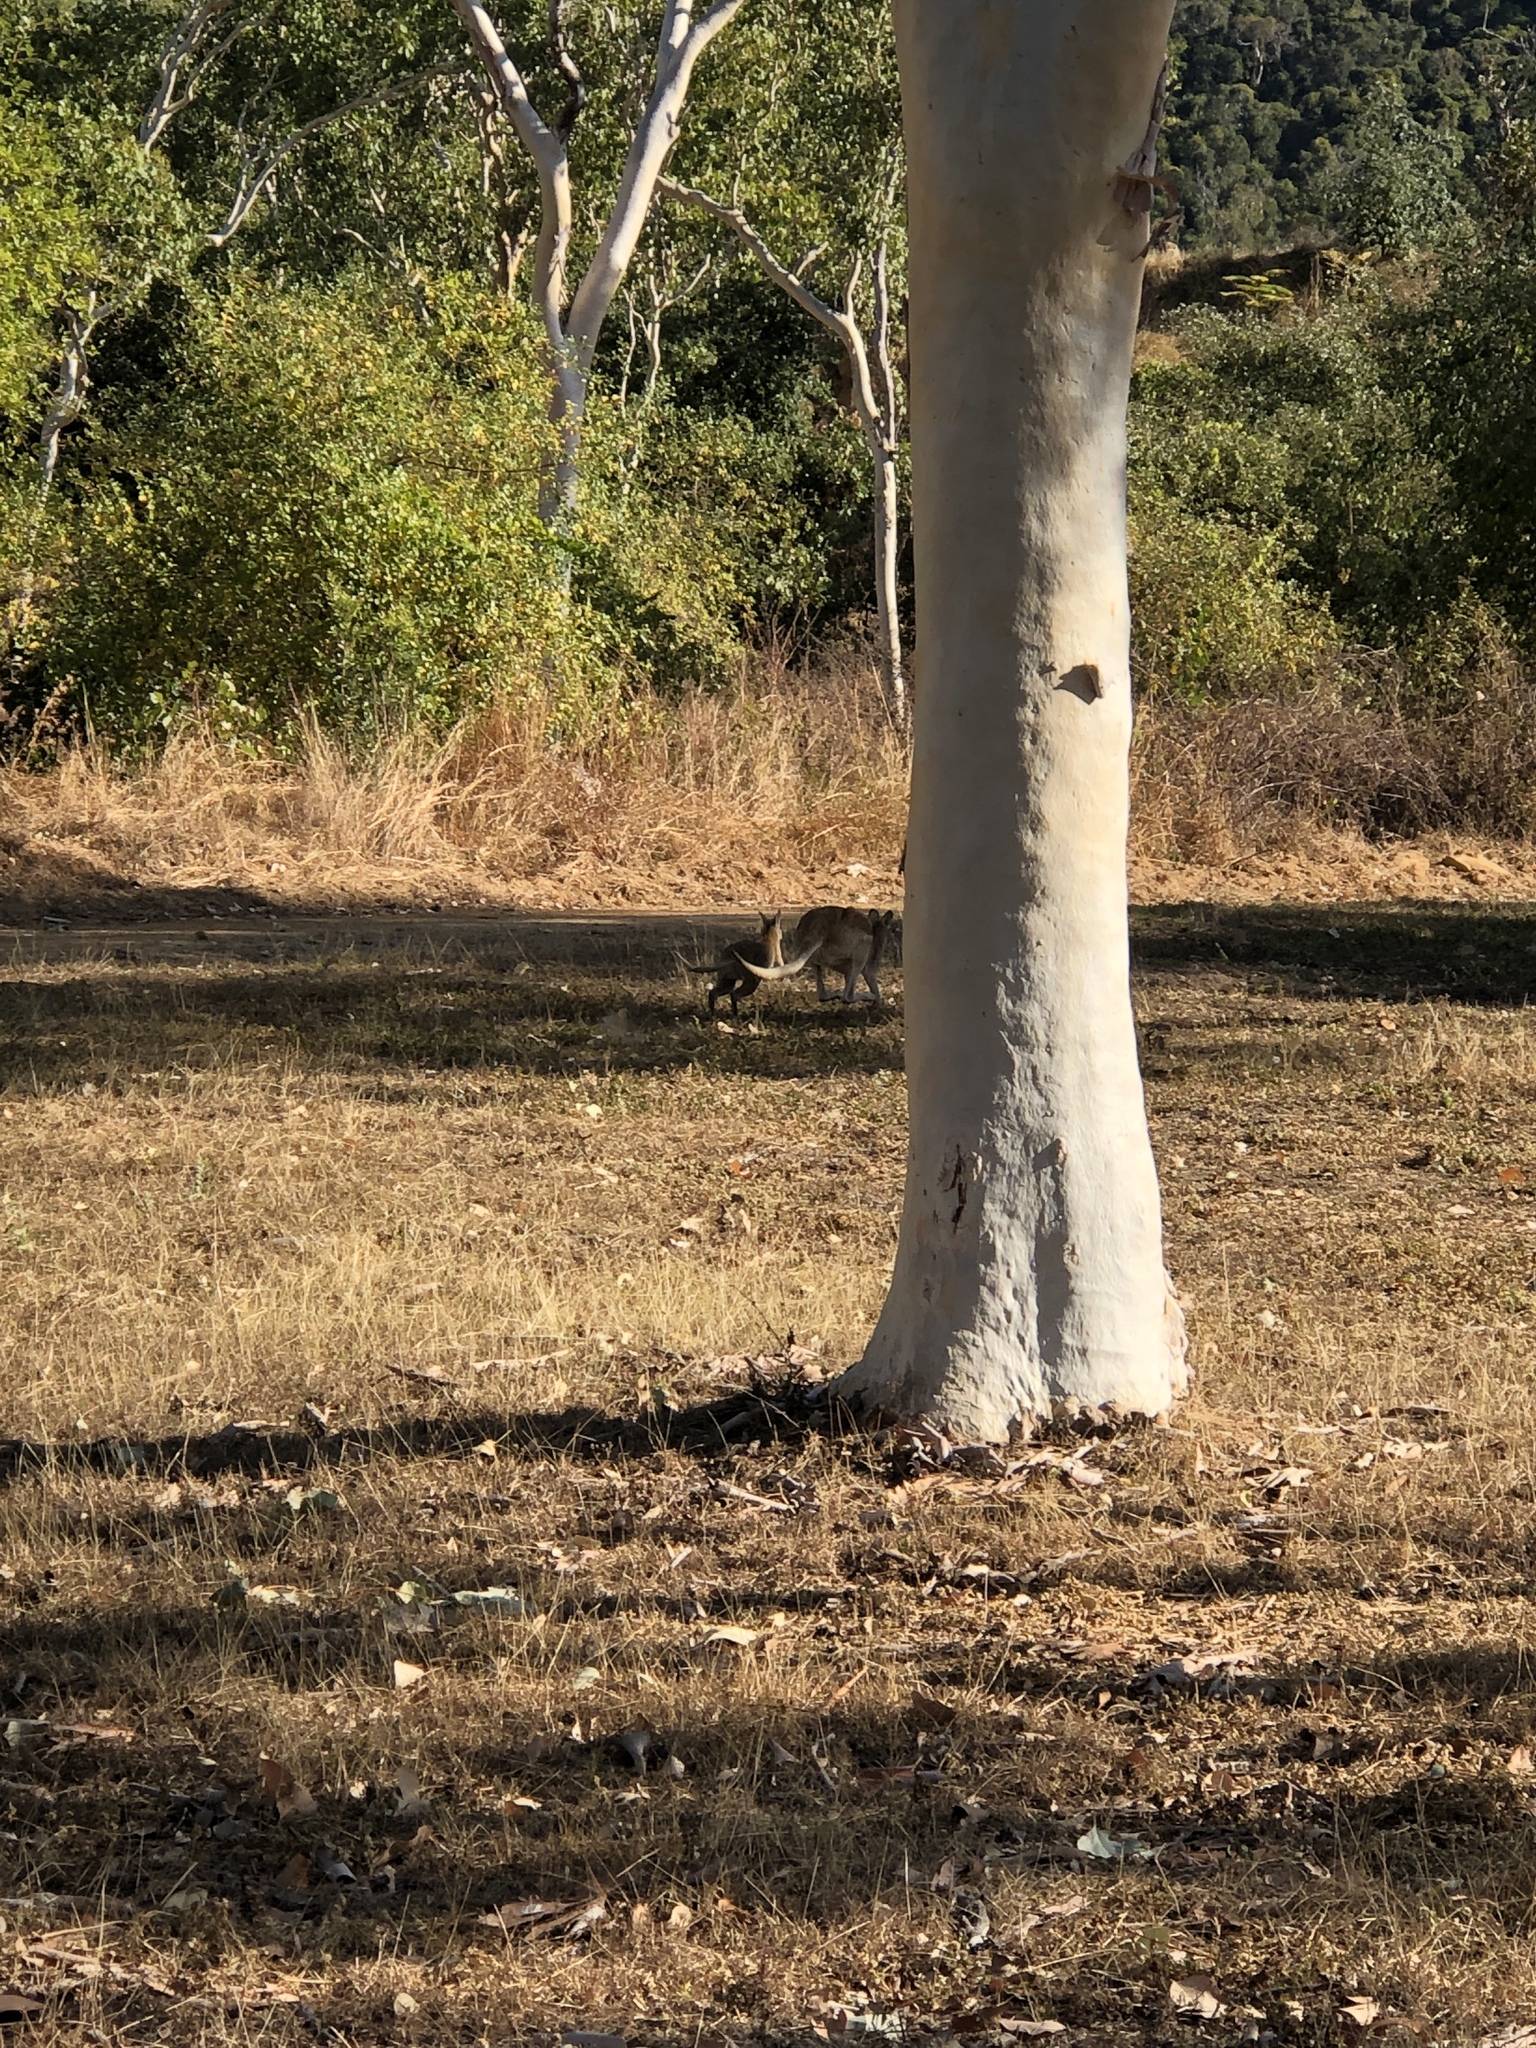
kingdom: Animalia
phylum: Chordata
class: Mammalia
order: Diprotodontia
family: Macropodidae
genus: Macropus
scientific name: Macropus agilis
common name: Agile wallaby
